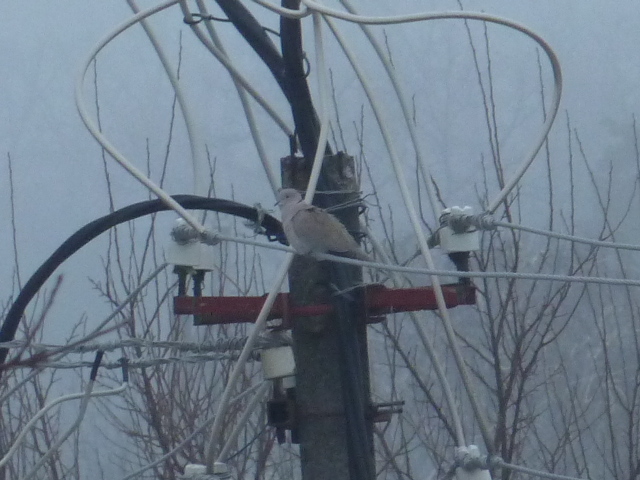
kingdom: Animalia
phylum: Chordata
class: Aves
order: Columbiformes
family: Columbidae
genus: Streptopelia
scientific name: Streptopelia decaocto
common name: Eurasian collared dove
